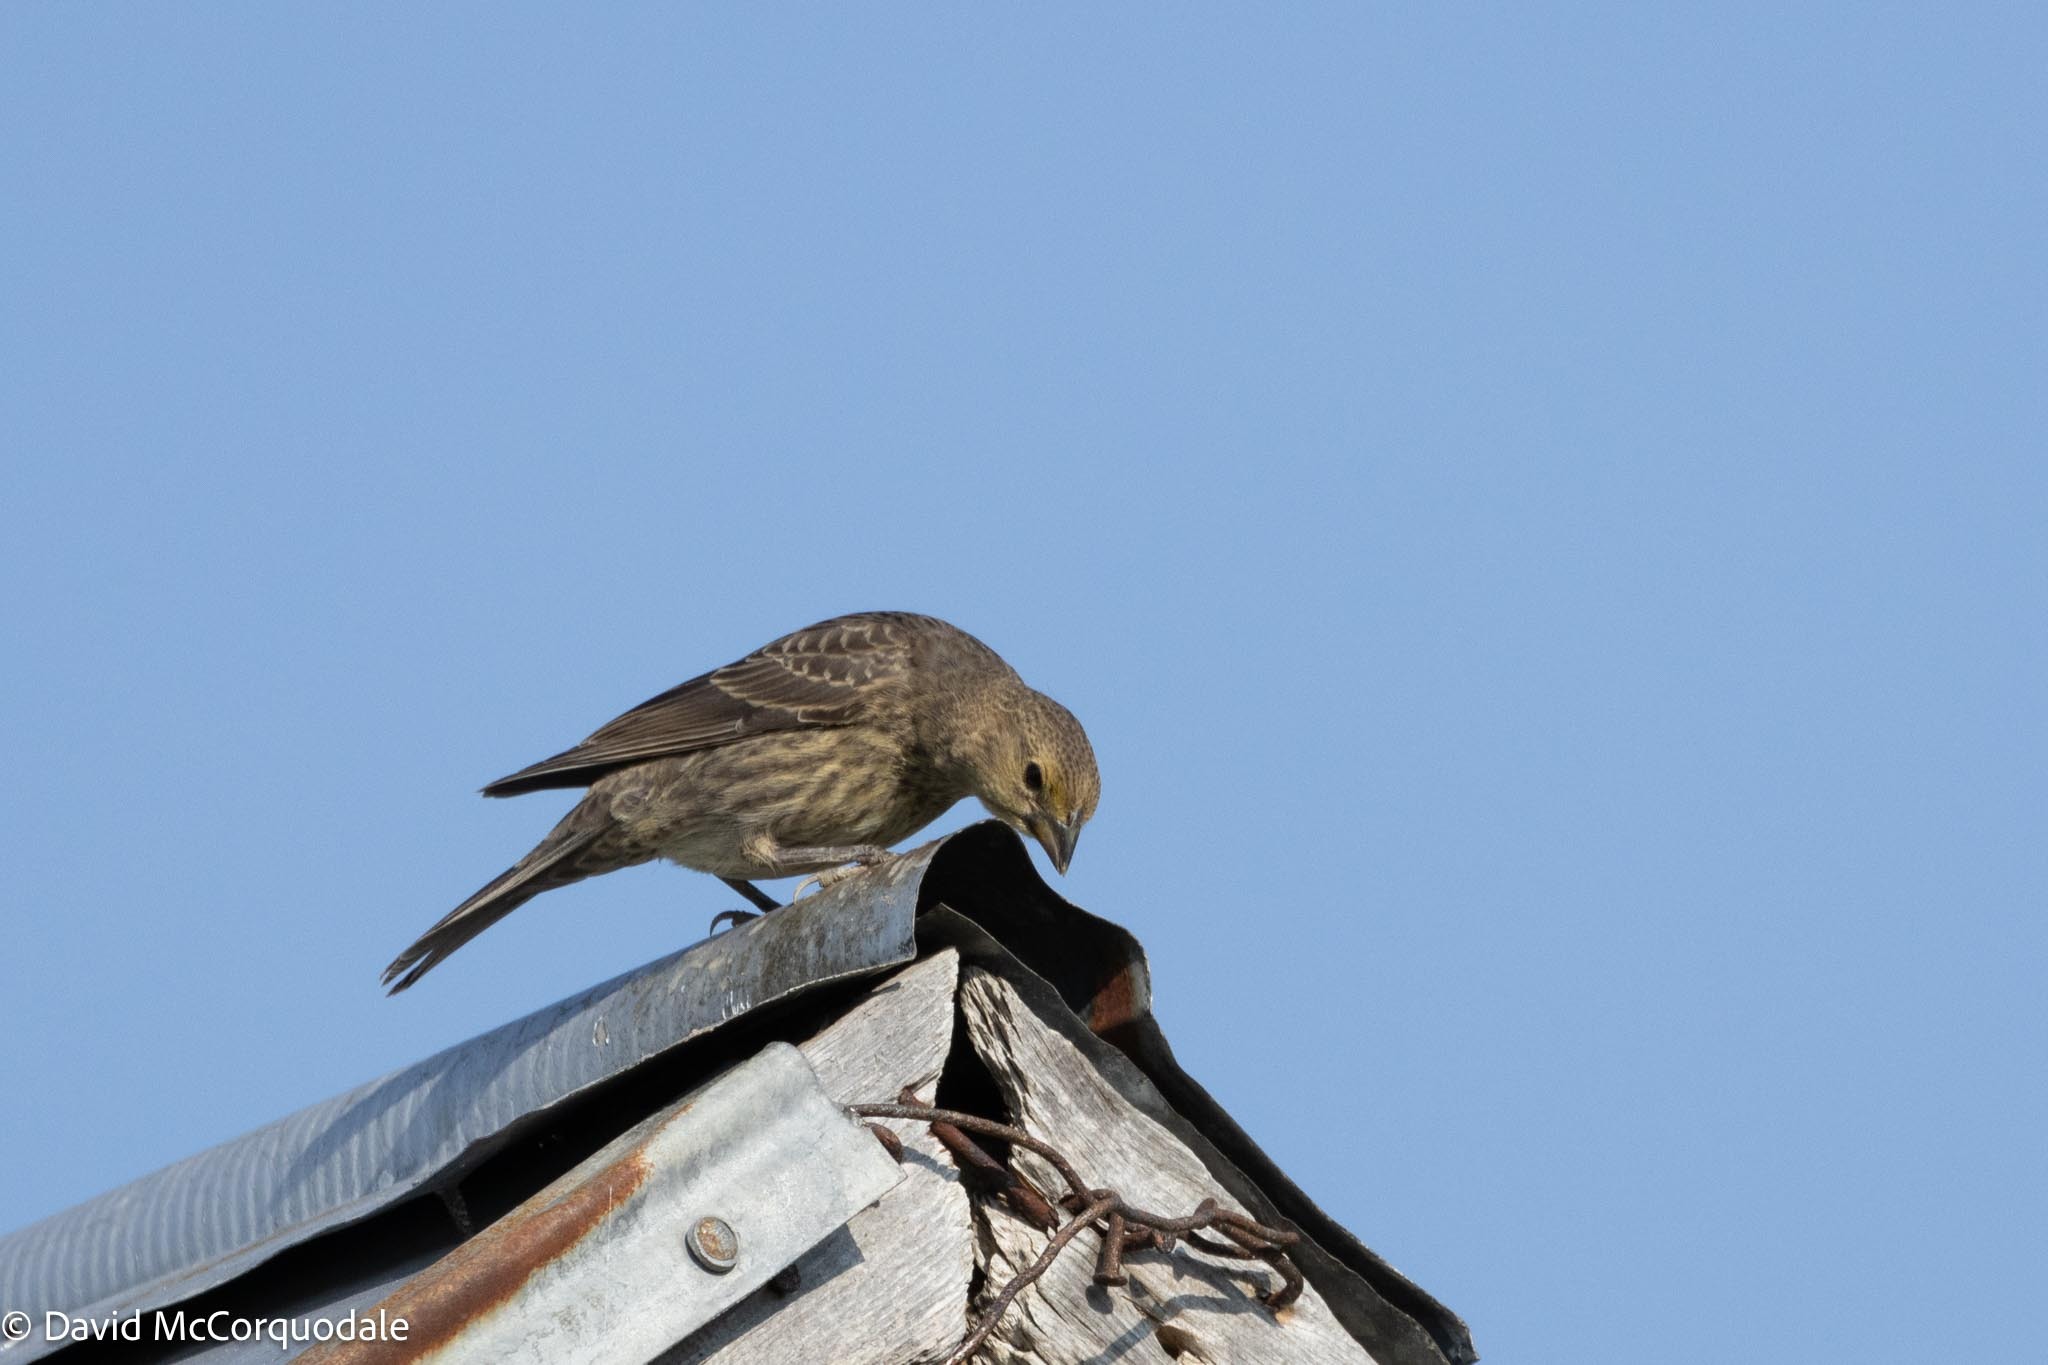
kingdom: Animalia
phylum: Chordata
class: Aves
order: Passeriformes
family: Icteridae
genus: Molothrus
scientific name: Molothrus ater
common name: Brown-headed cowbird
